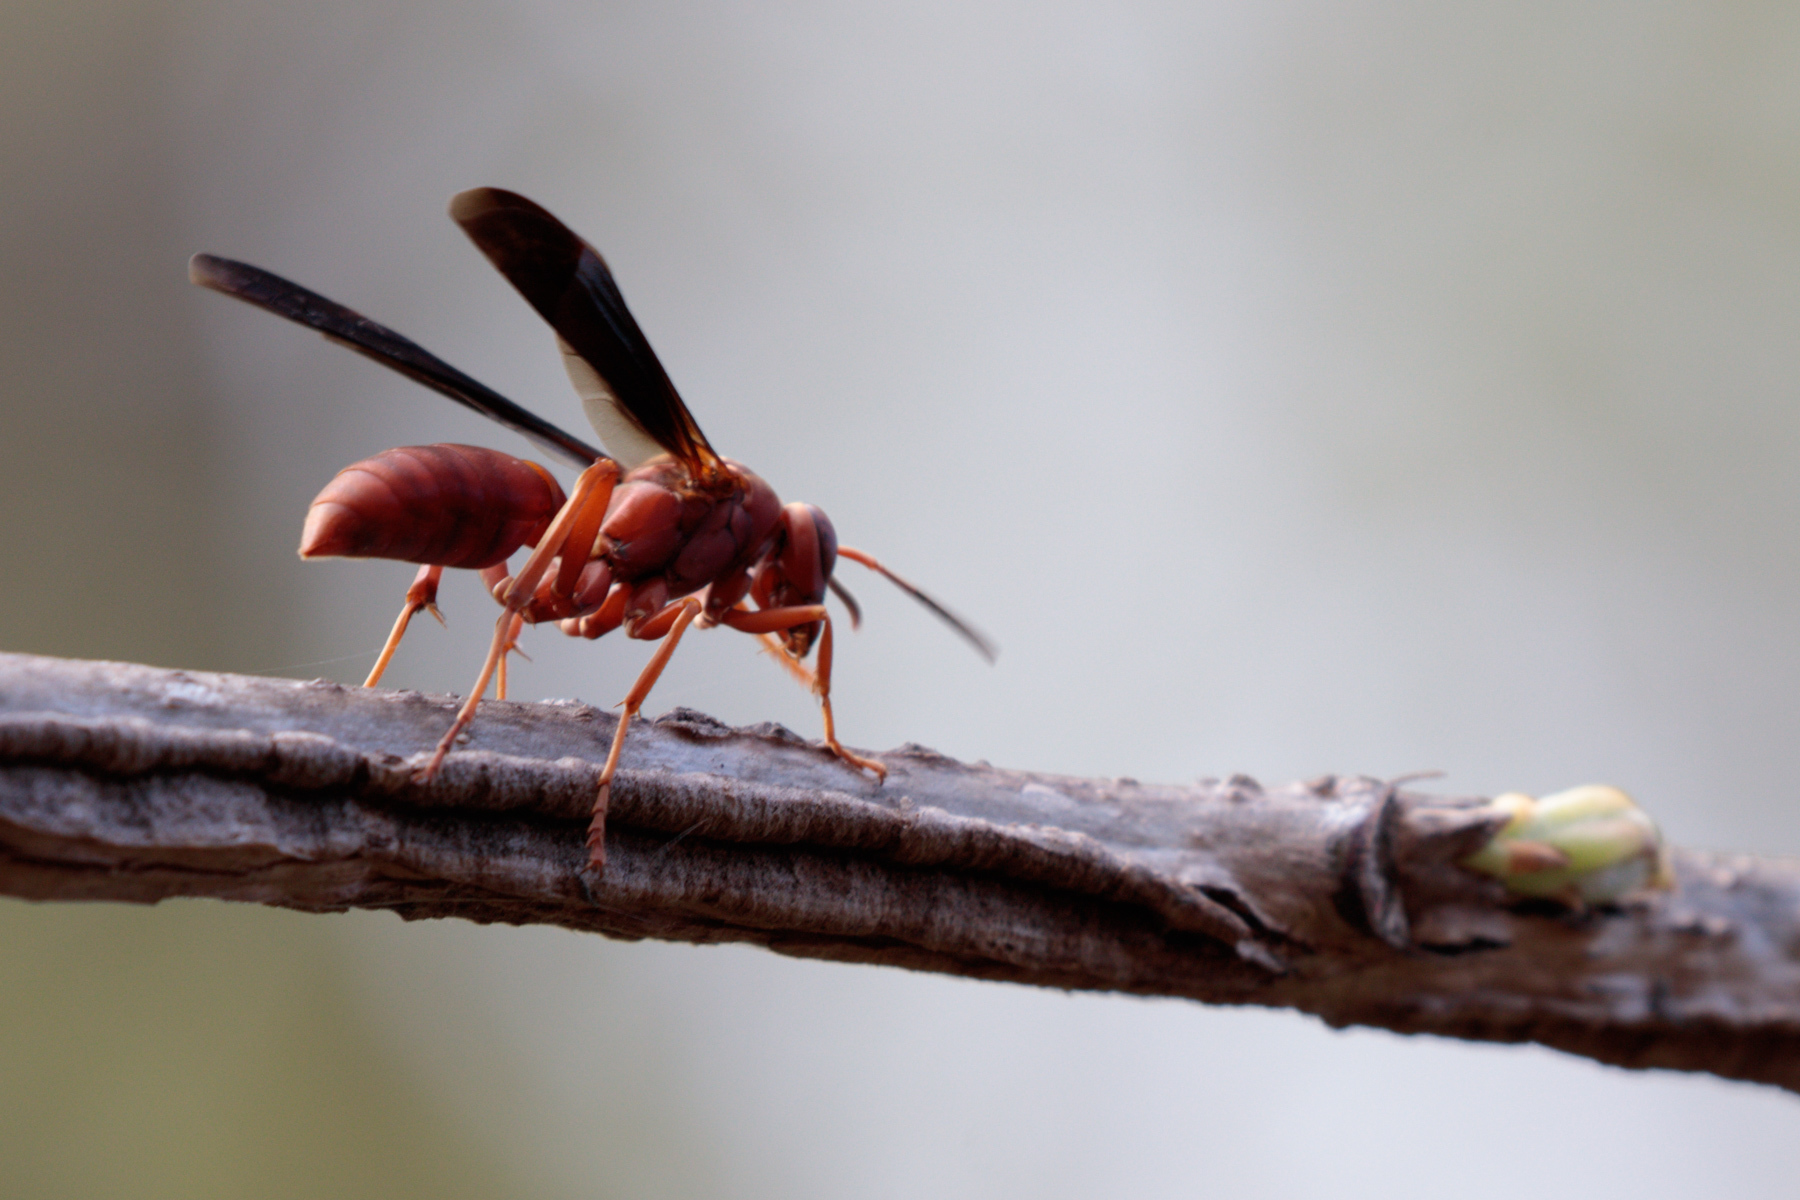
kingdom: Animalia
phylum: Arthropoda
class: Insecta
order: Hymenoptera
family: Vespidae
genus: Fuscopolistes
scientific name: Fuscopolistes
